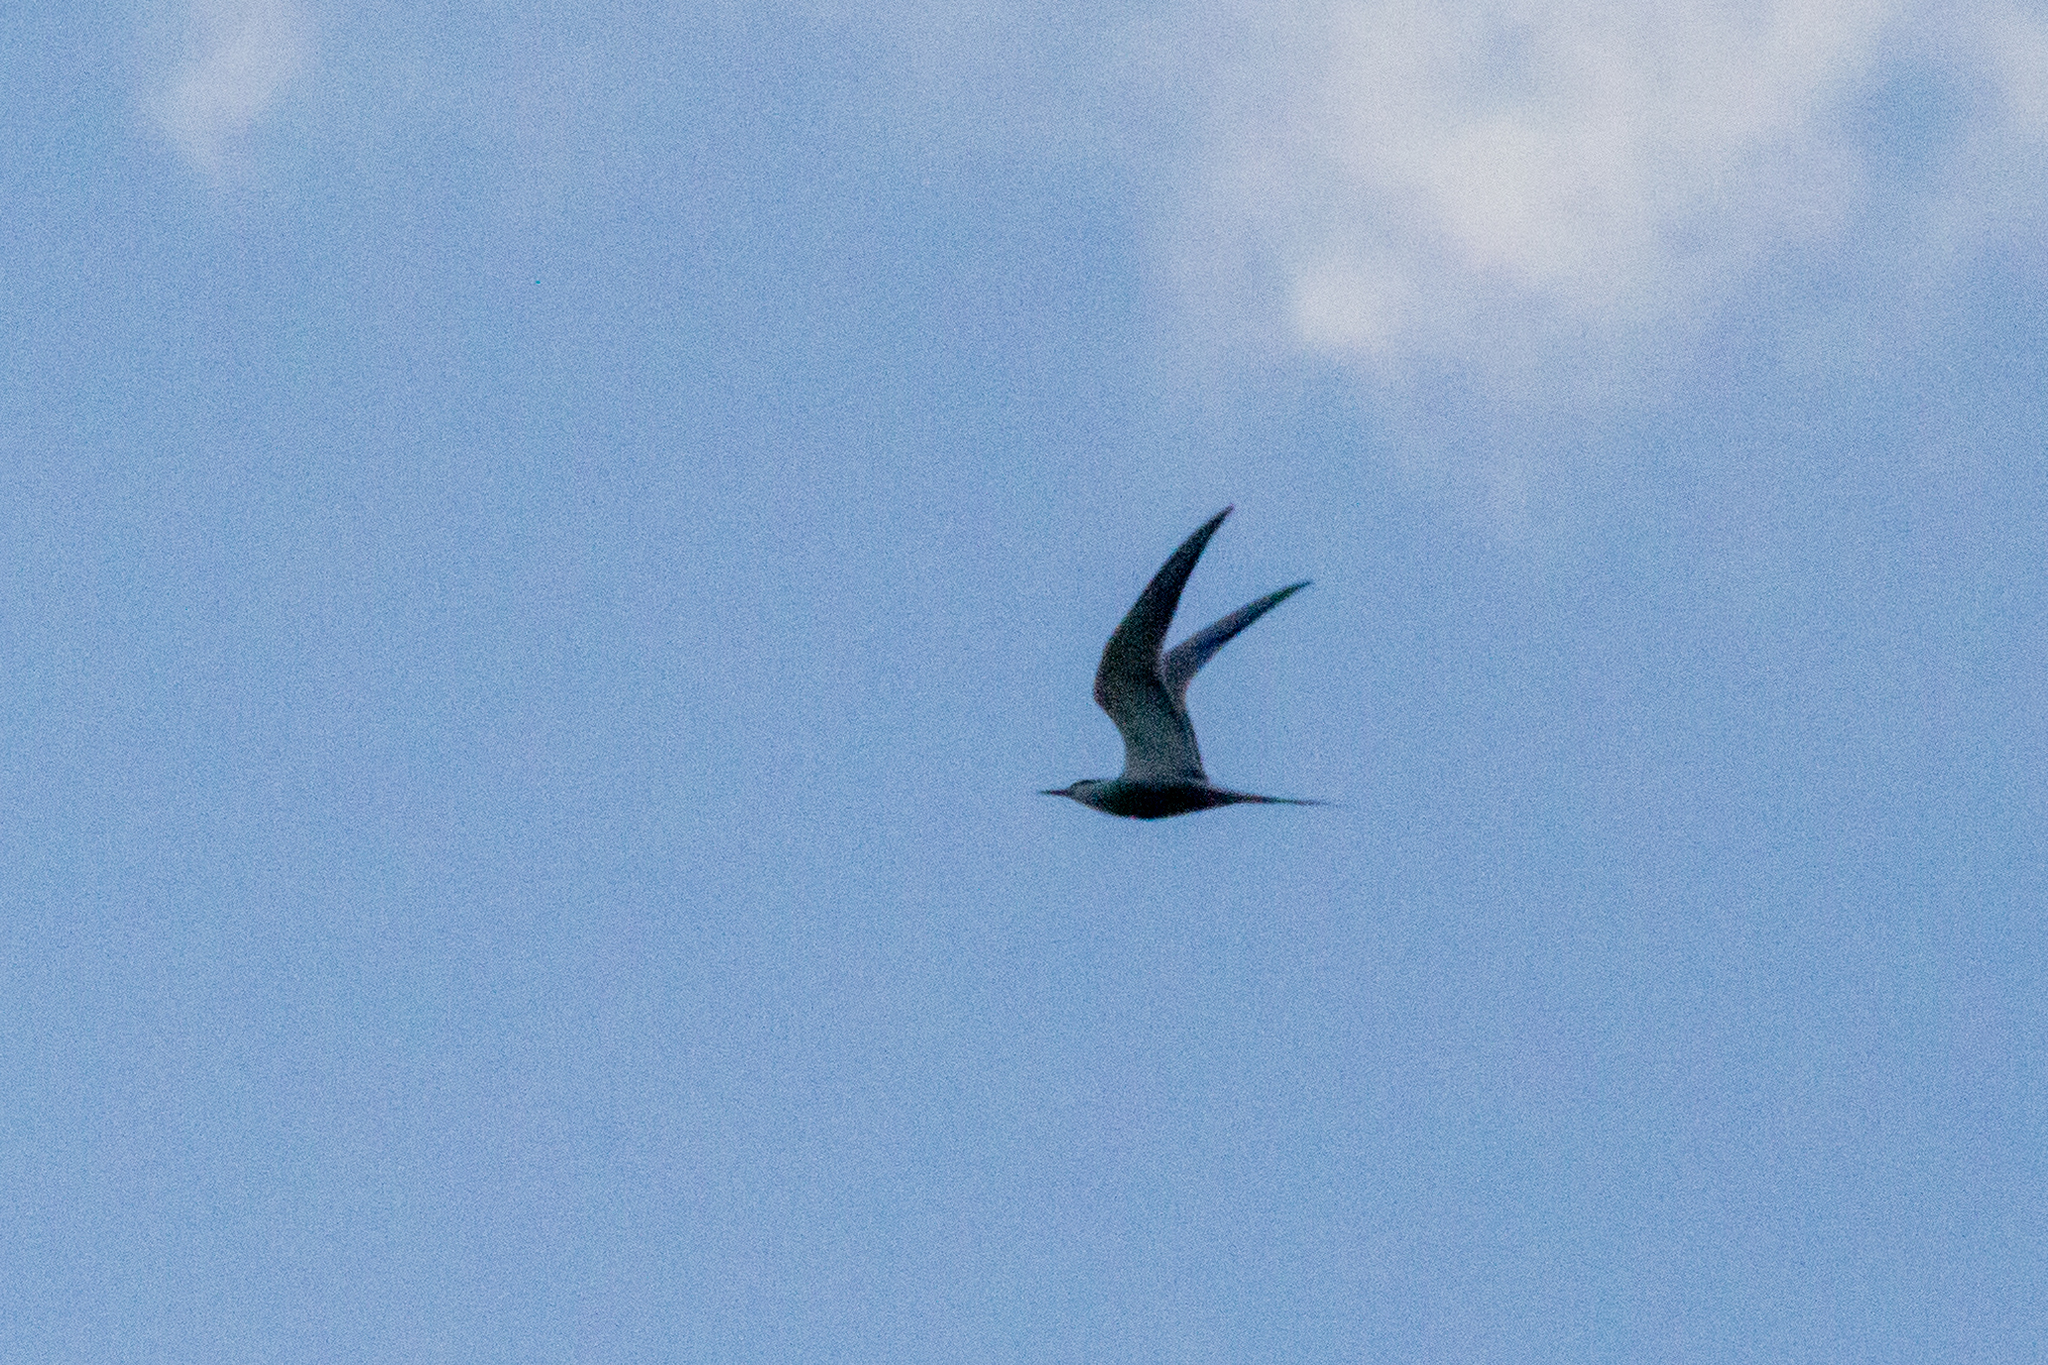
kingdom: Animalia
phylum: Chordata
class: Aves
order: Charadriiformes
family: Laridae
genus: Sterna
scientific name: Sterna hirundo
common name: Common tern
